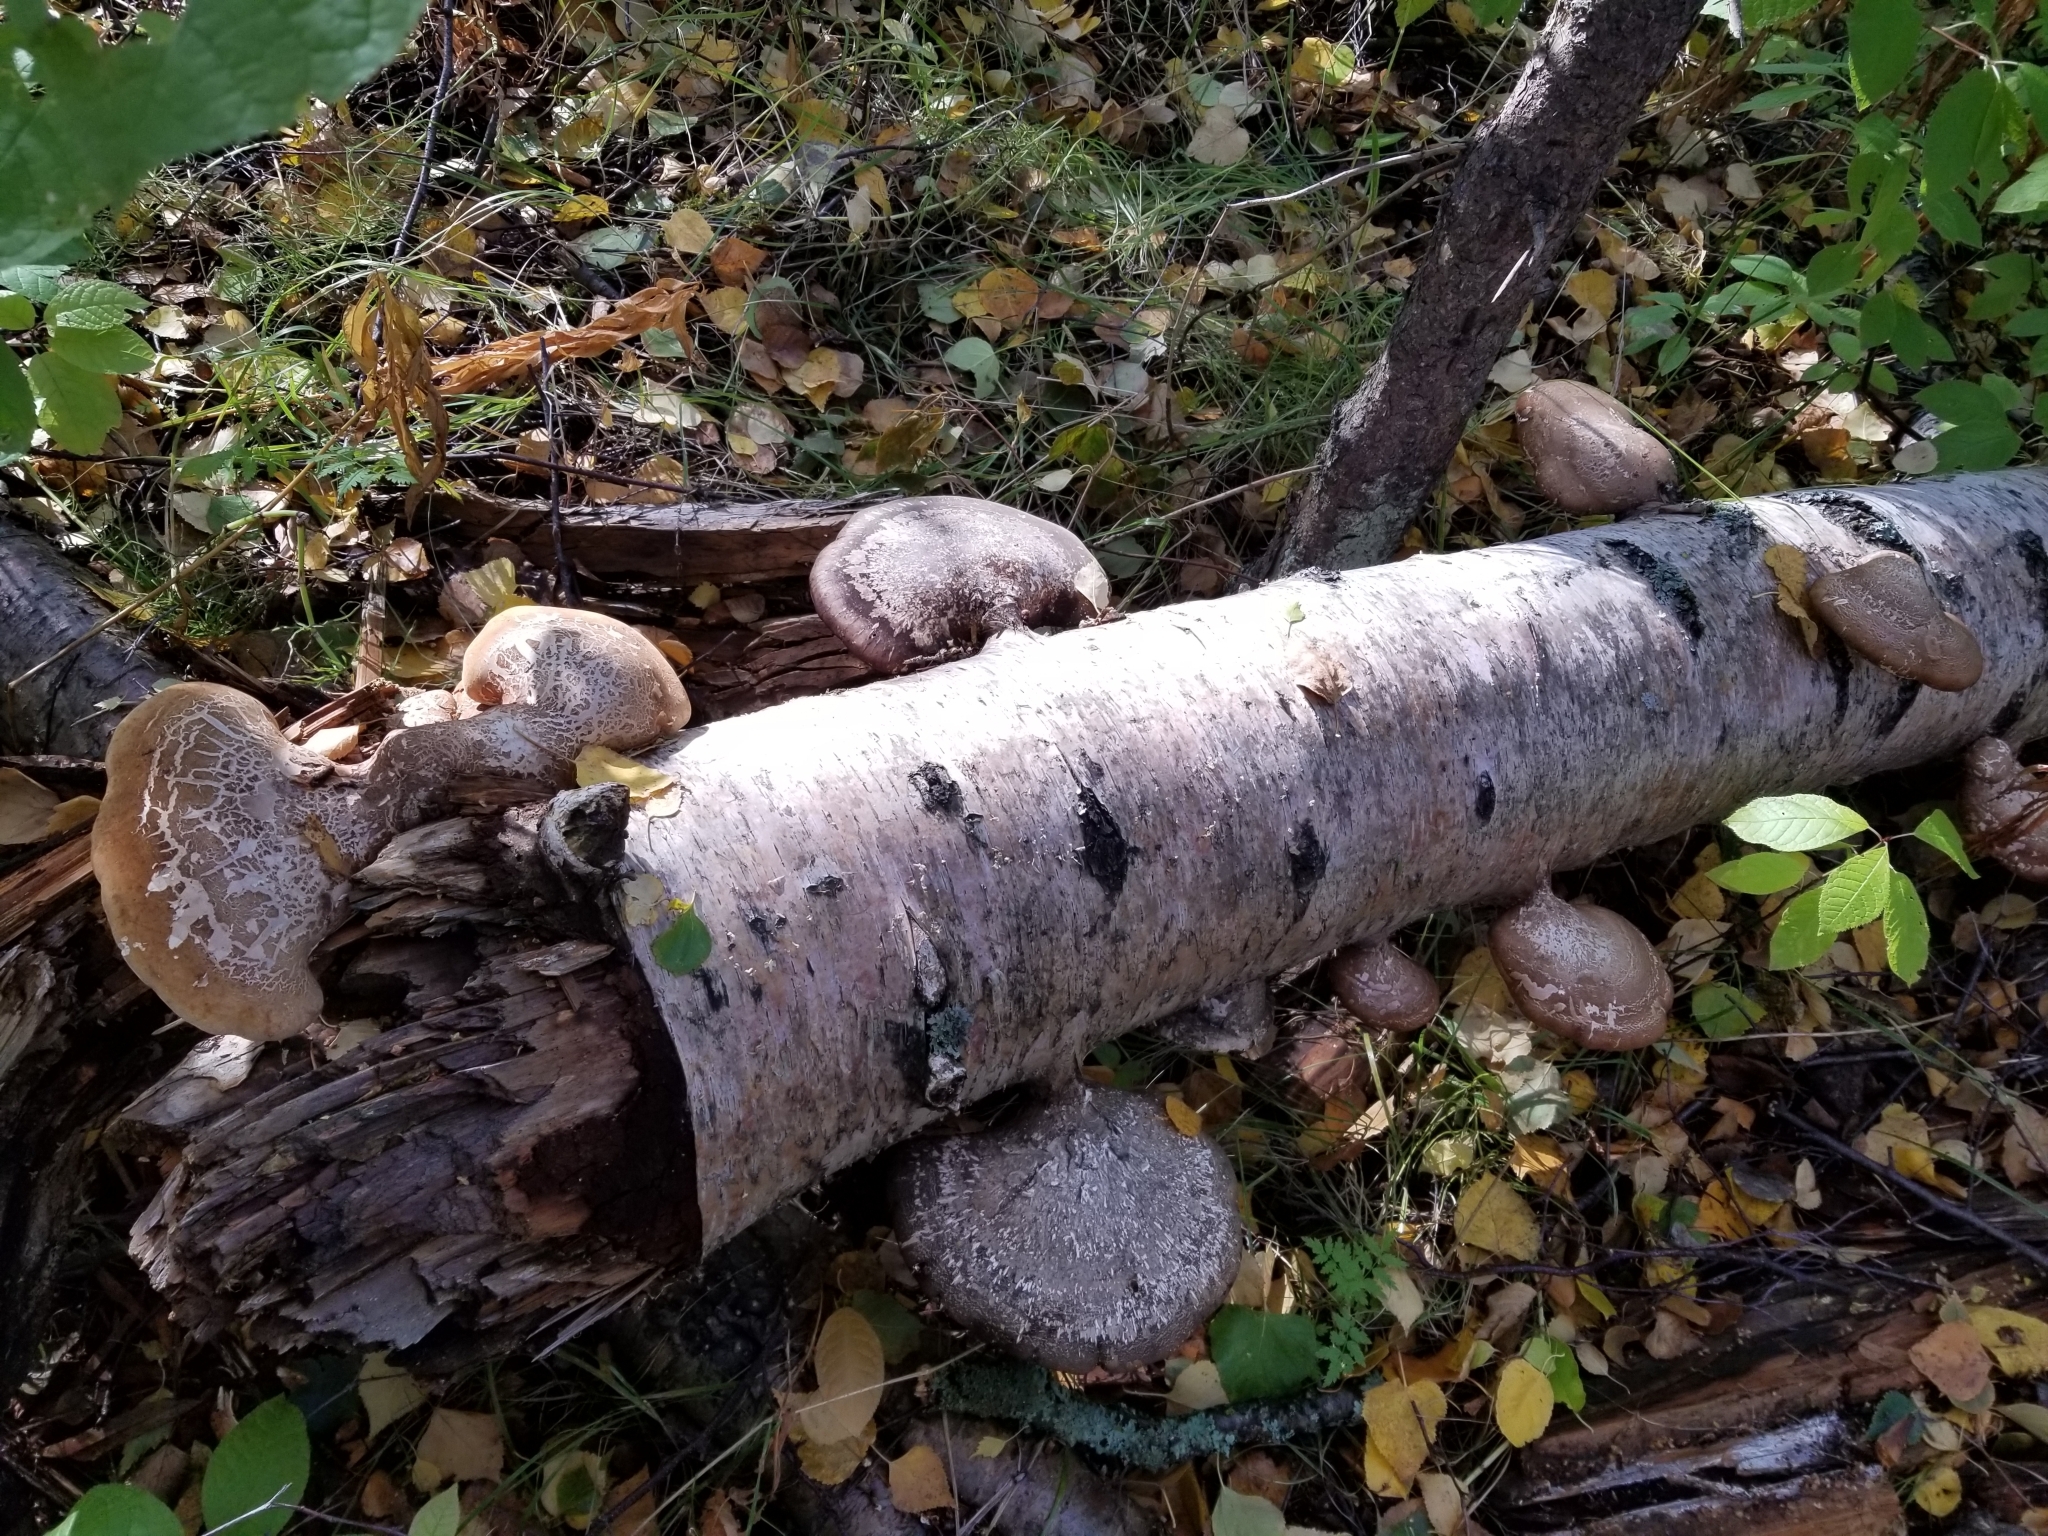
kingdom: Fungi
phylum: Basidiomycota
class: Agaricomycetes
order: Polyporales
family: Fomitopsidaceae
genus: Fomitopsis
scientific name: Fomitopsis betulina
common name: Birch polypore
